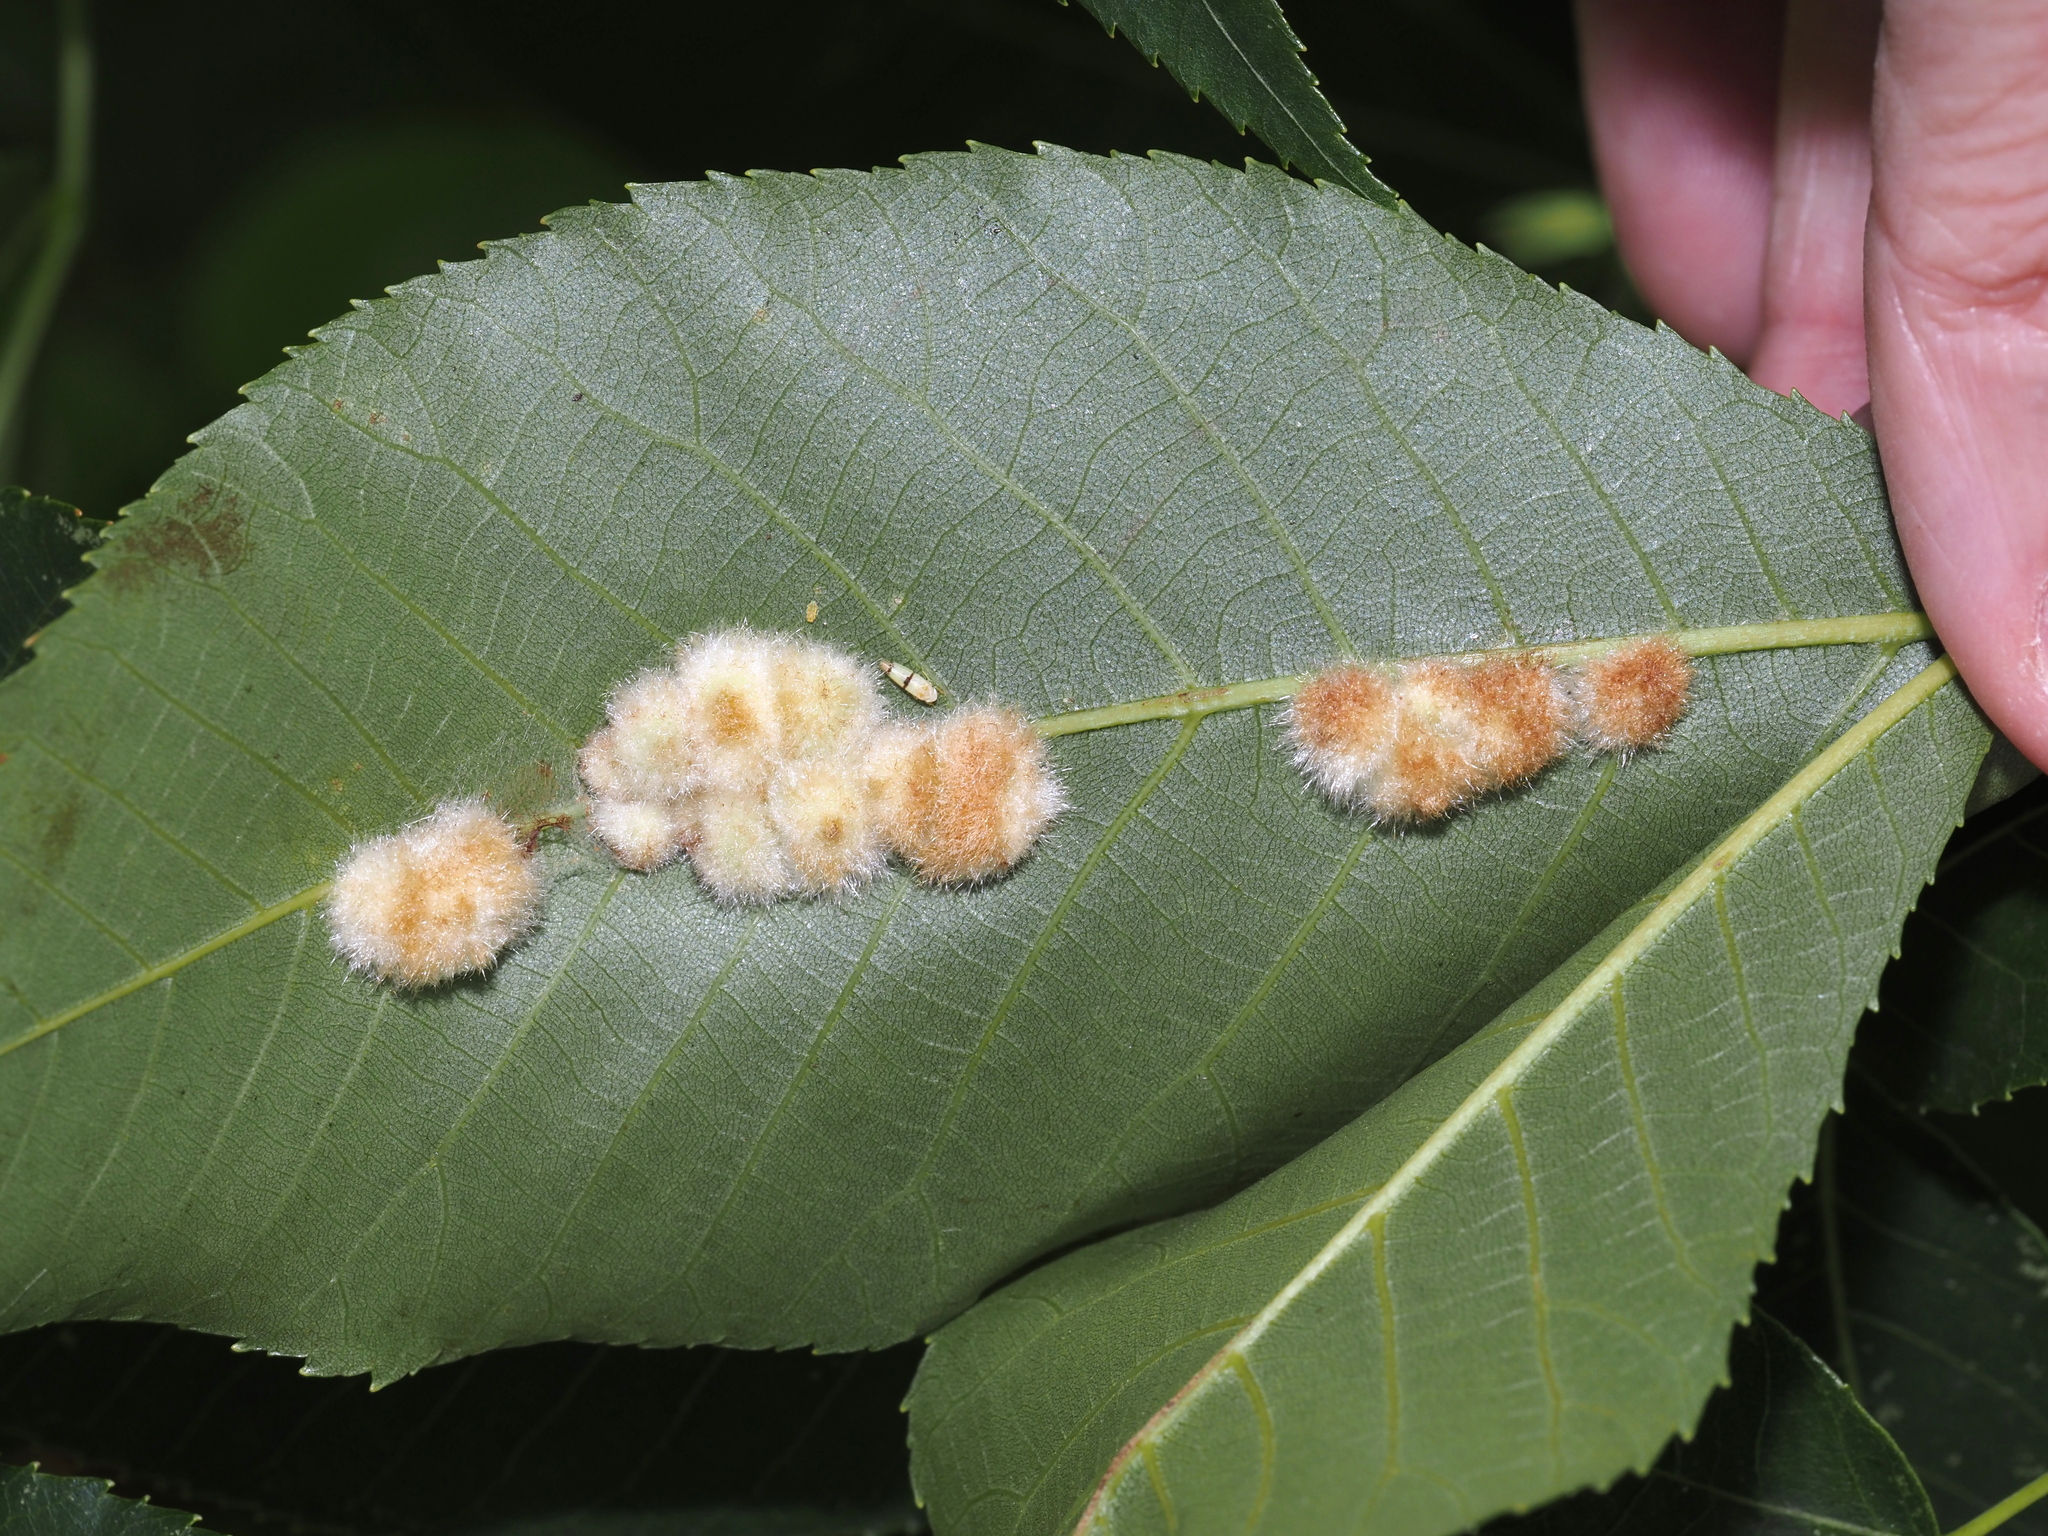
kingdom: Animalia
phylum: Arthropoda
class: Insecta
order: Diptera
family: Cecidomyiidae
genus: Caryomyia
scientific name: Caryomyia aggregata
